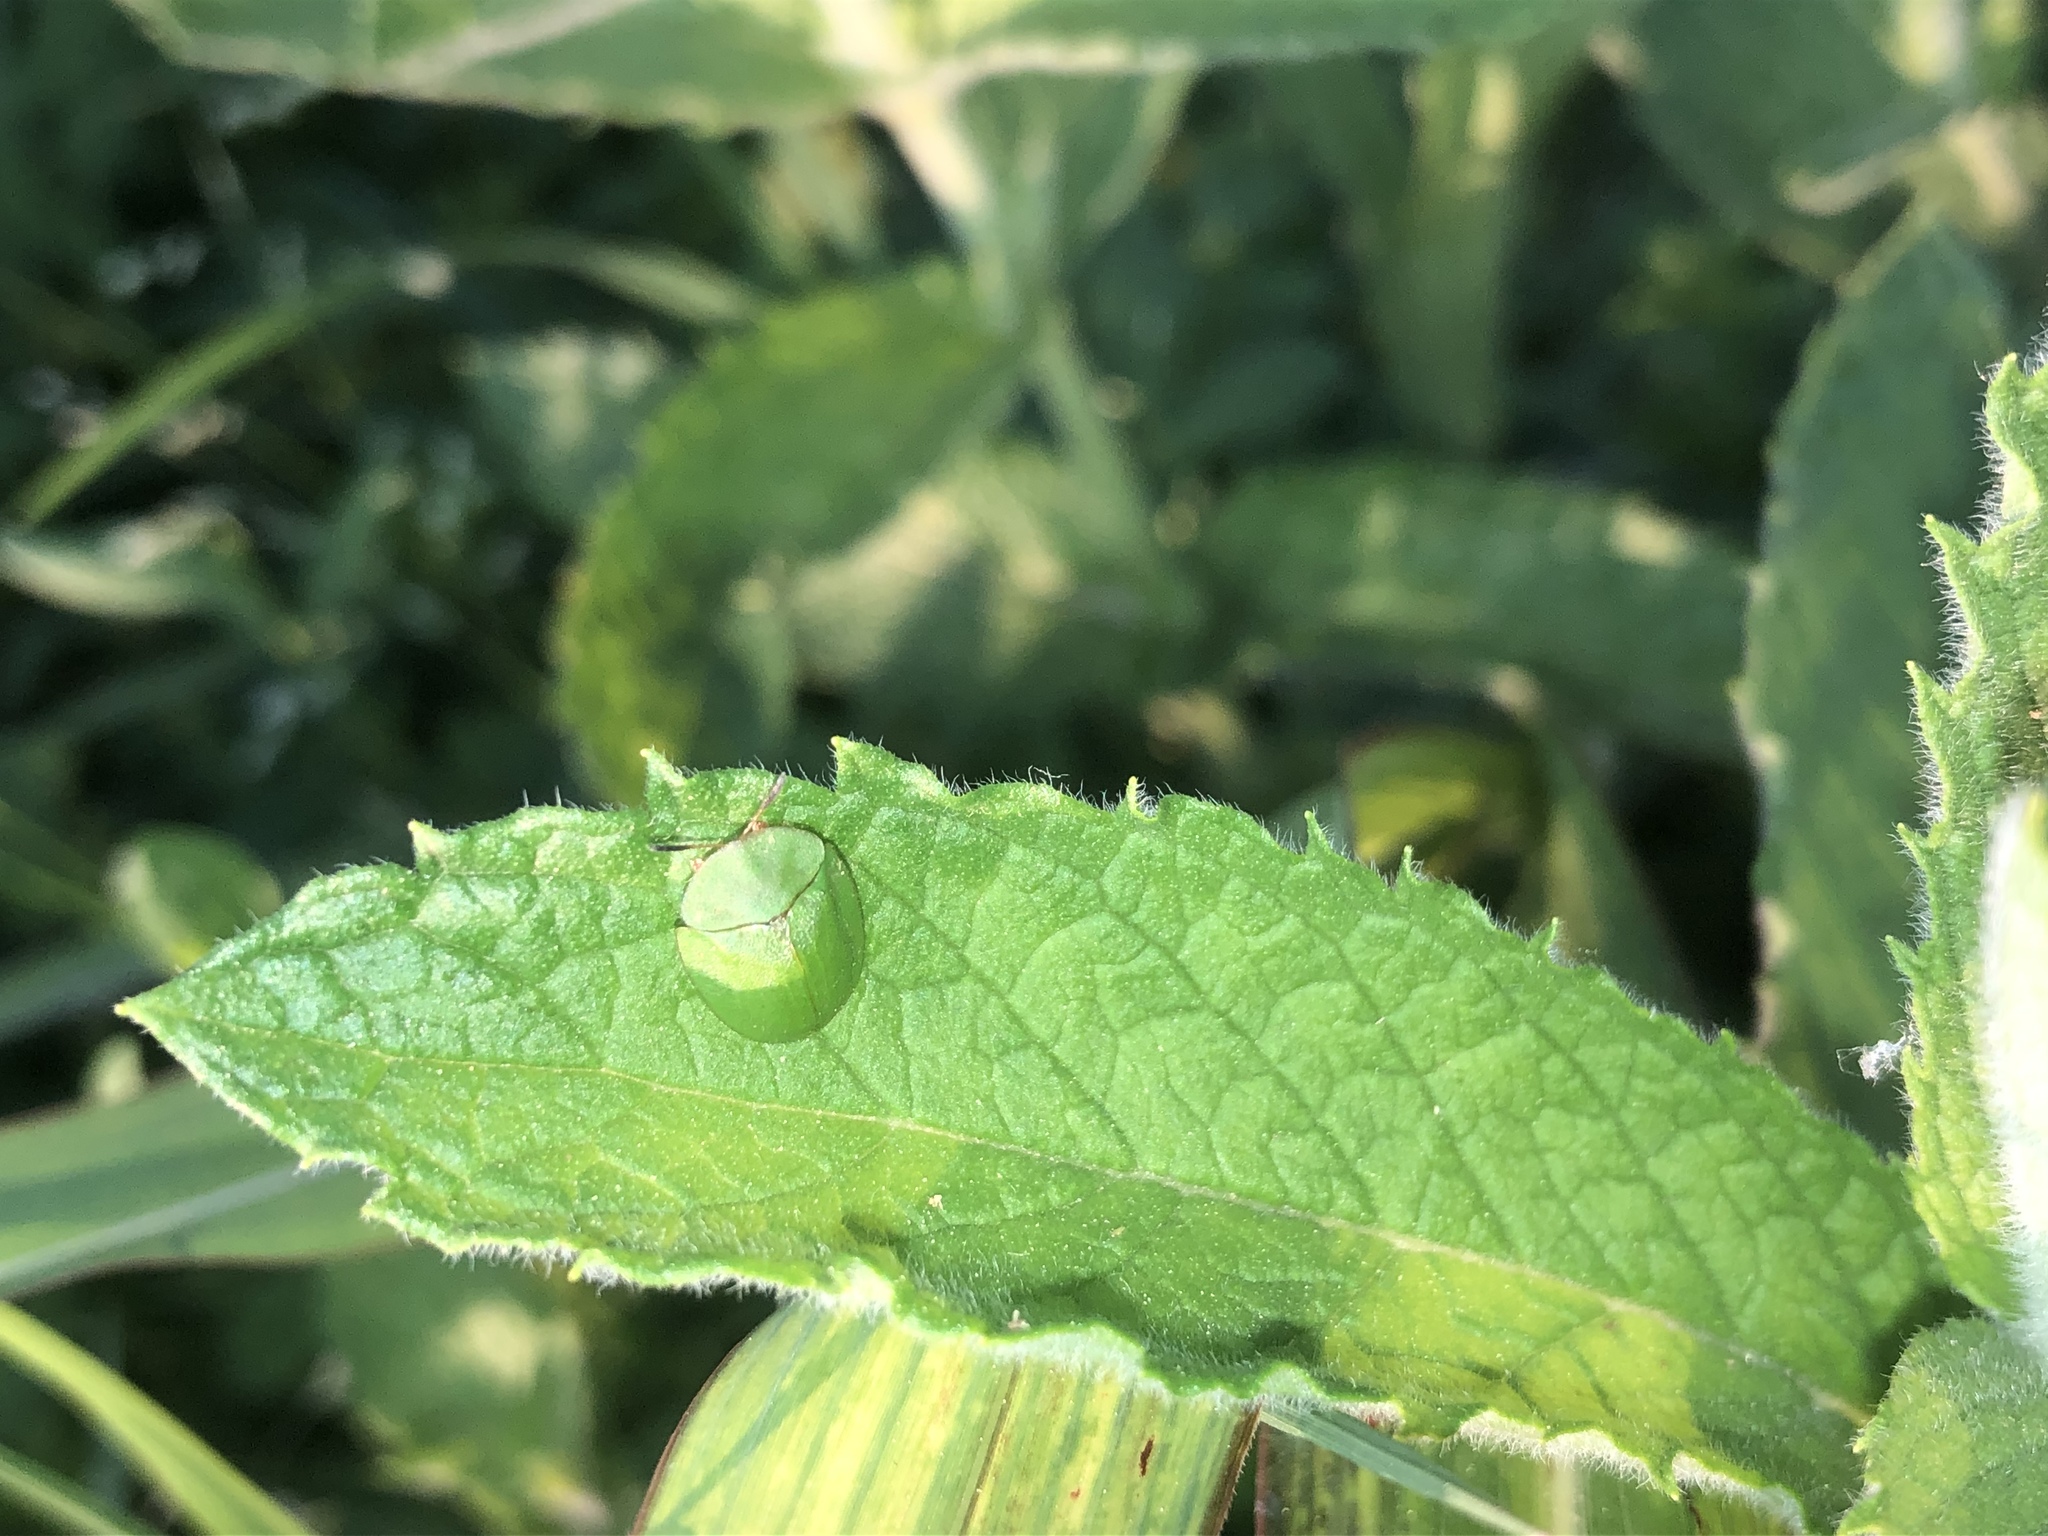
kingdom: Animalia
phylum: Arthropoda
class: Insecta
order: Coleoptera
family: Chrysomelidae
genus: Cassida
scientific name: Cassida viridis
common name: Green tortoise beetle
